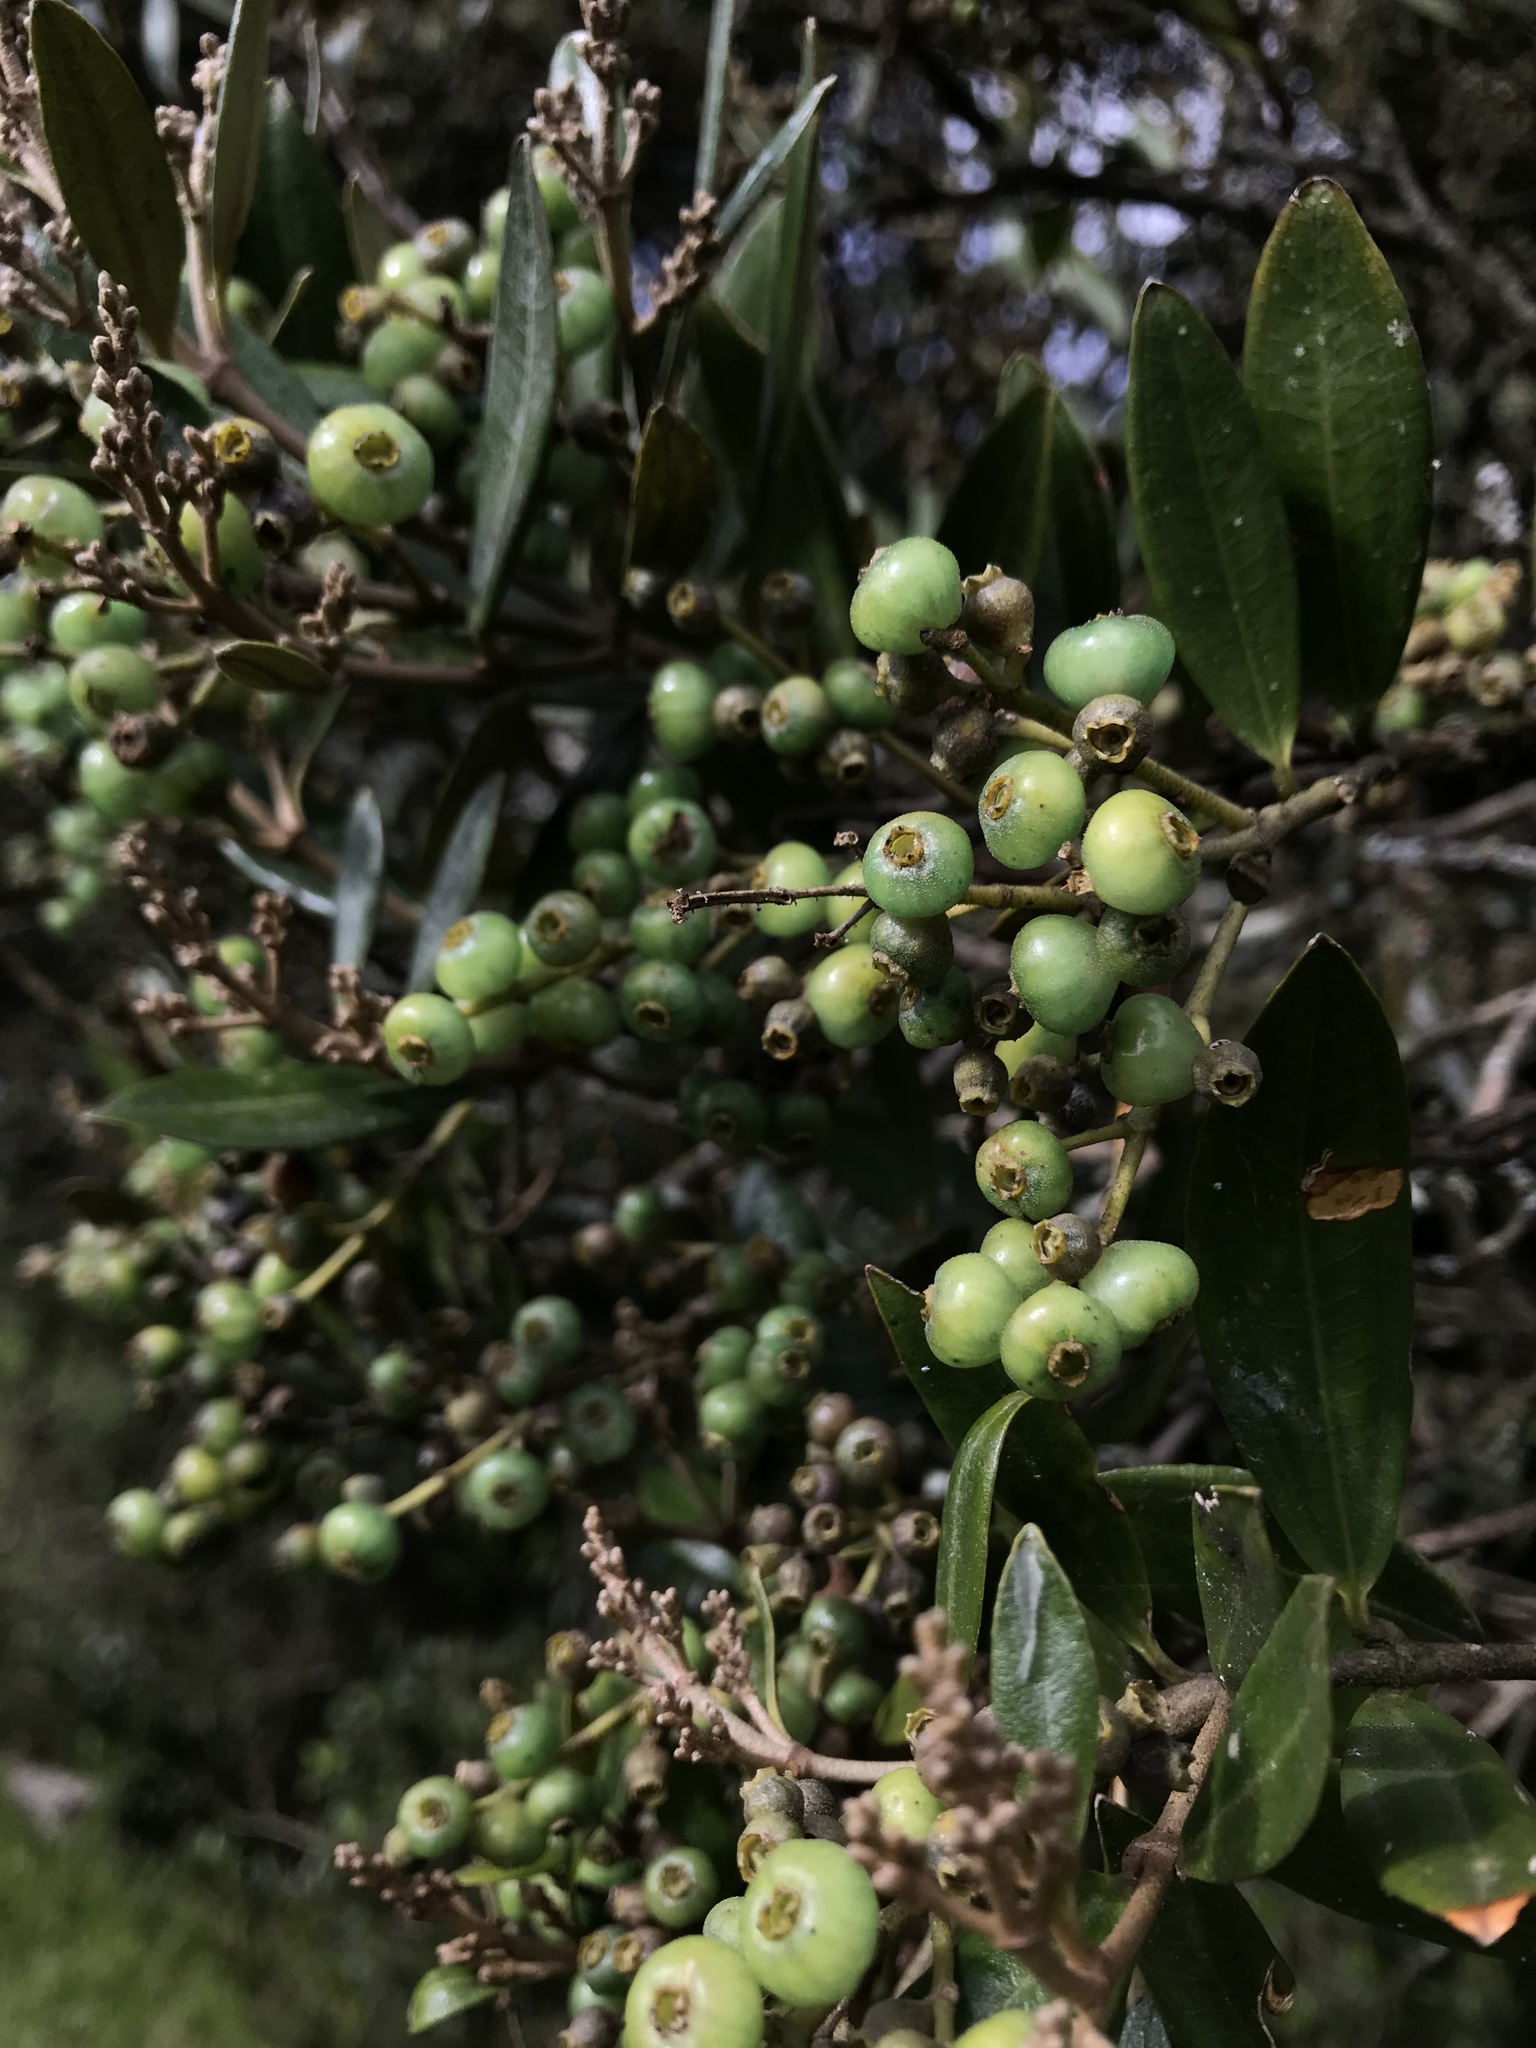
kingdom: Plantae
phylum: Tracheophyta
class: Magnoliopsida
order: Myrtales
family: Melastomataceae
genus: Miconia
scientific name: Miconia squamulosa
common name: Squamulose maya
